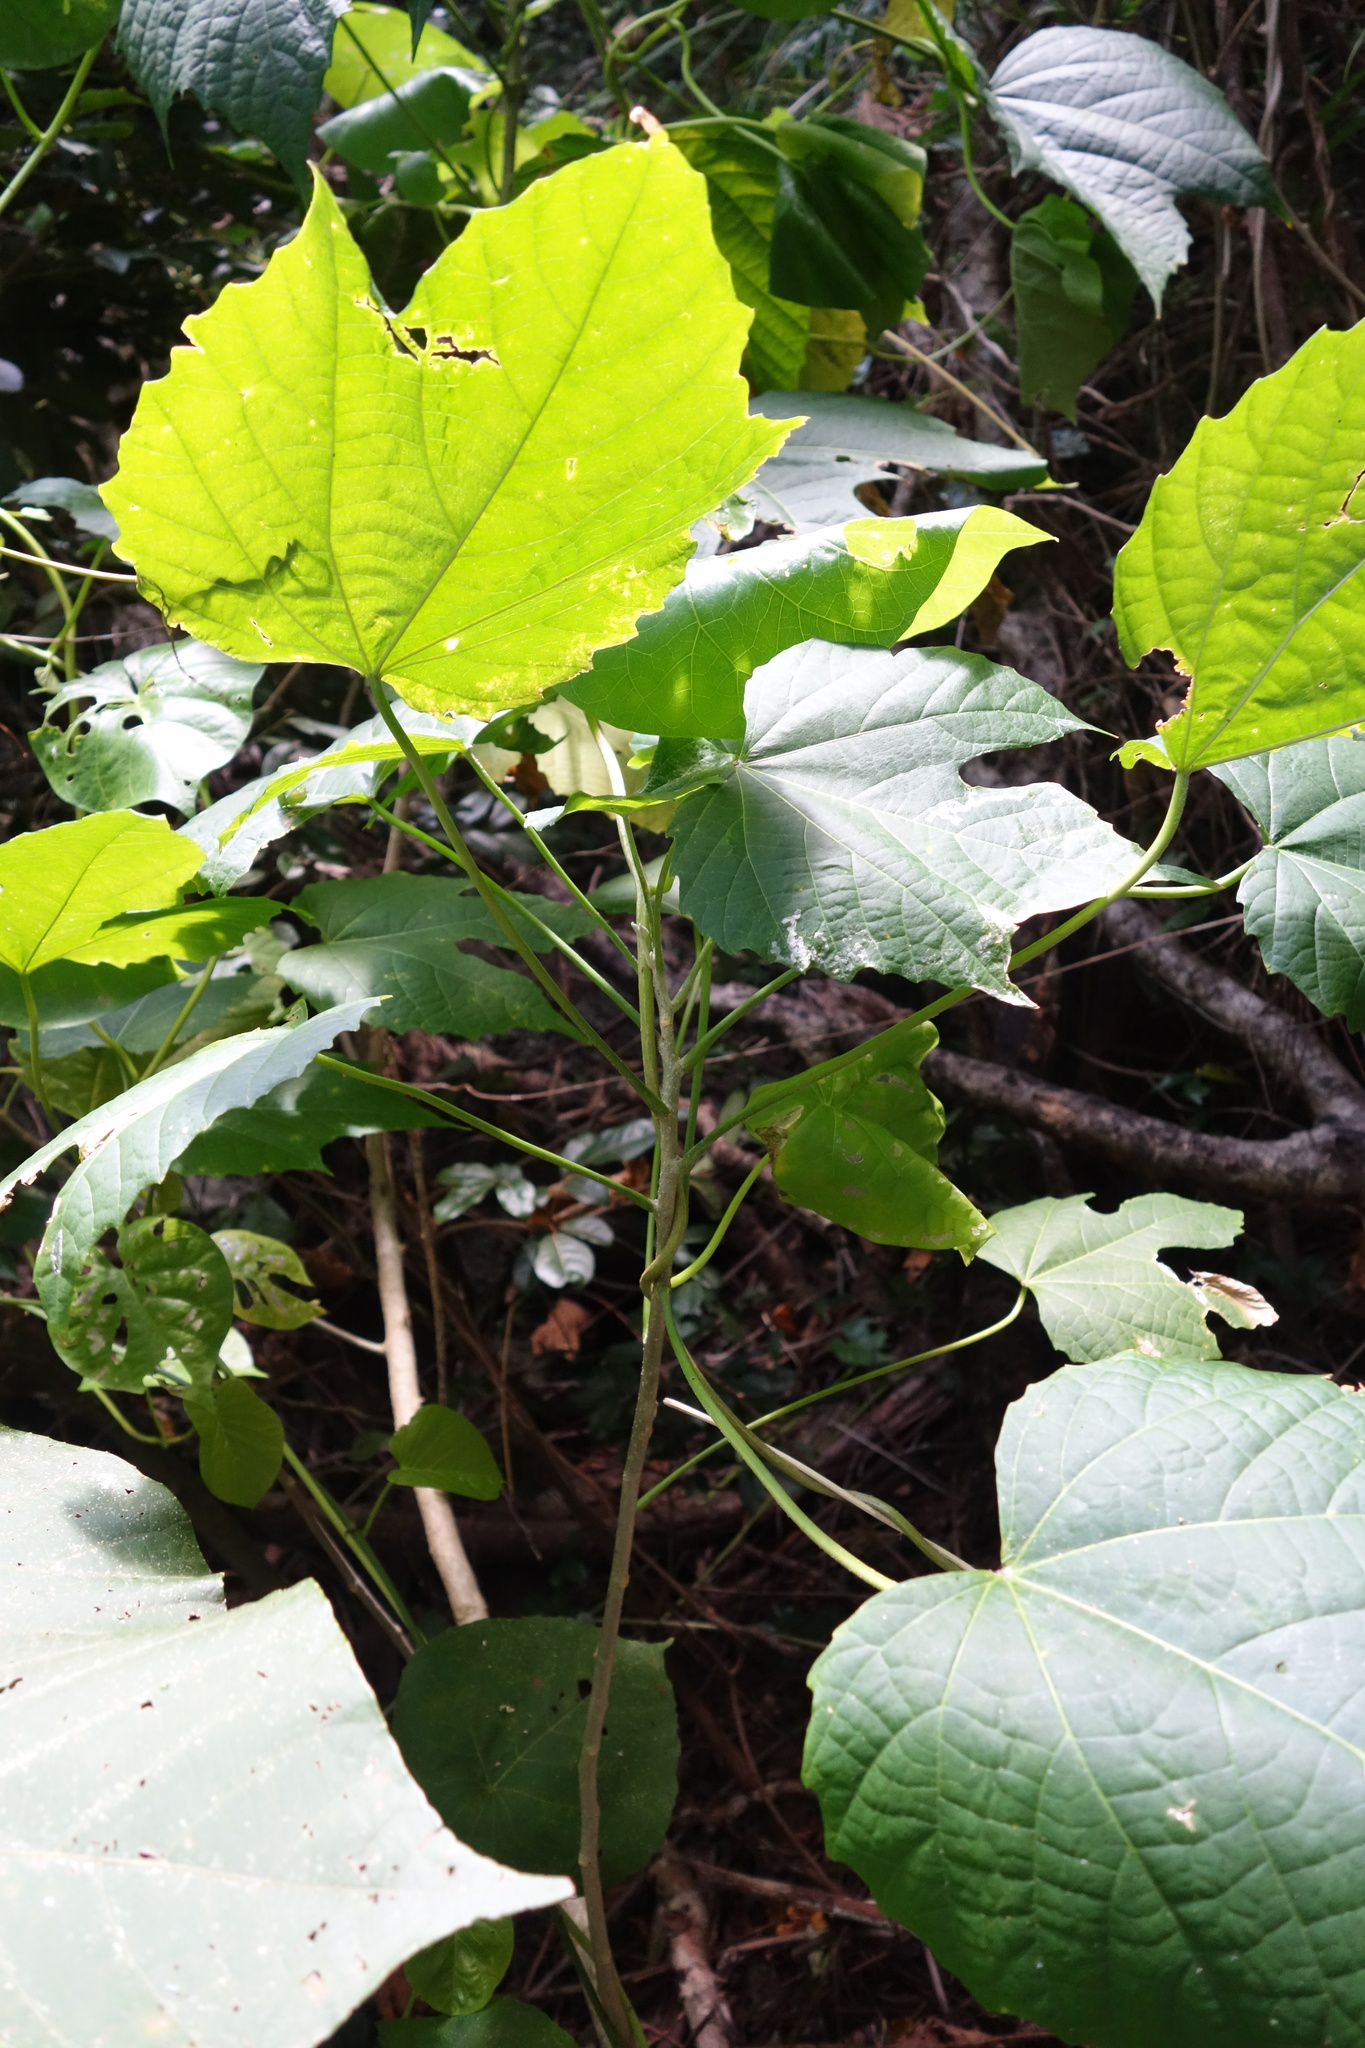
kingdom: Plantae
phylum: Tracheophyta
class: Magnoliopsida
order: Malvales
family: Malvaceae
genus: Callianthe
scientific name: Callianthe picta
